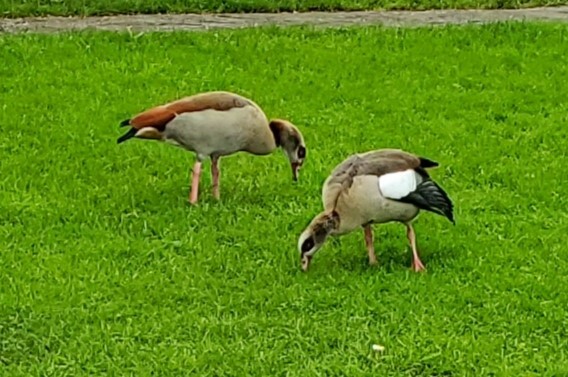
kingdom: Animalia
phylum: Chordata
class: Aves
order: Anseriformes
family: Anatidae
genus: Alopochen
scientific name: Alopochen aegyptiaca
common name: Egyptian goose
